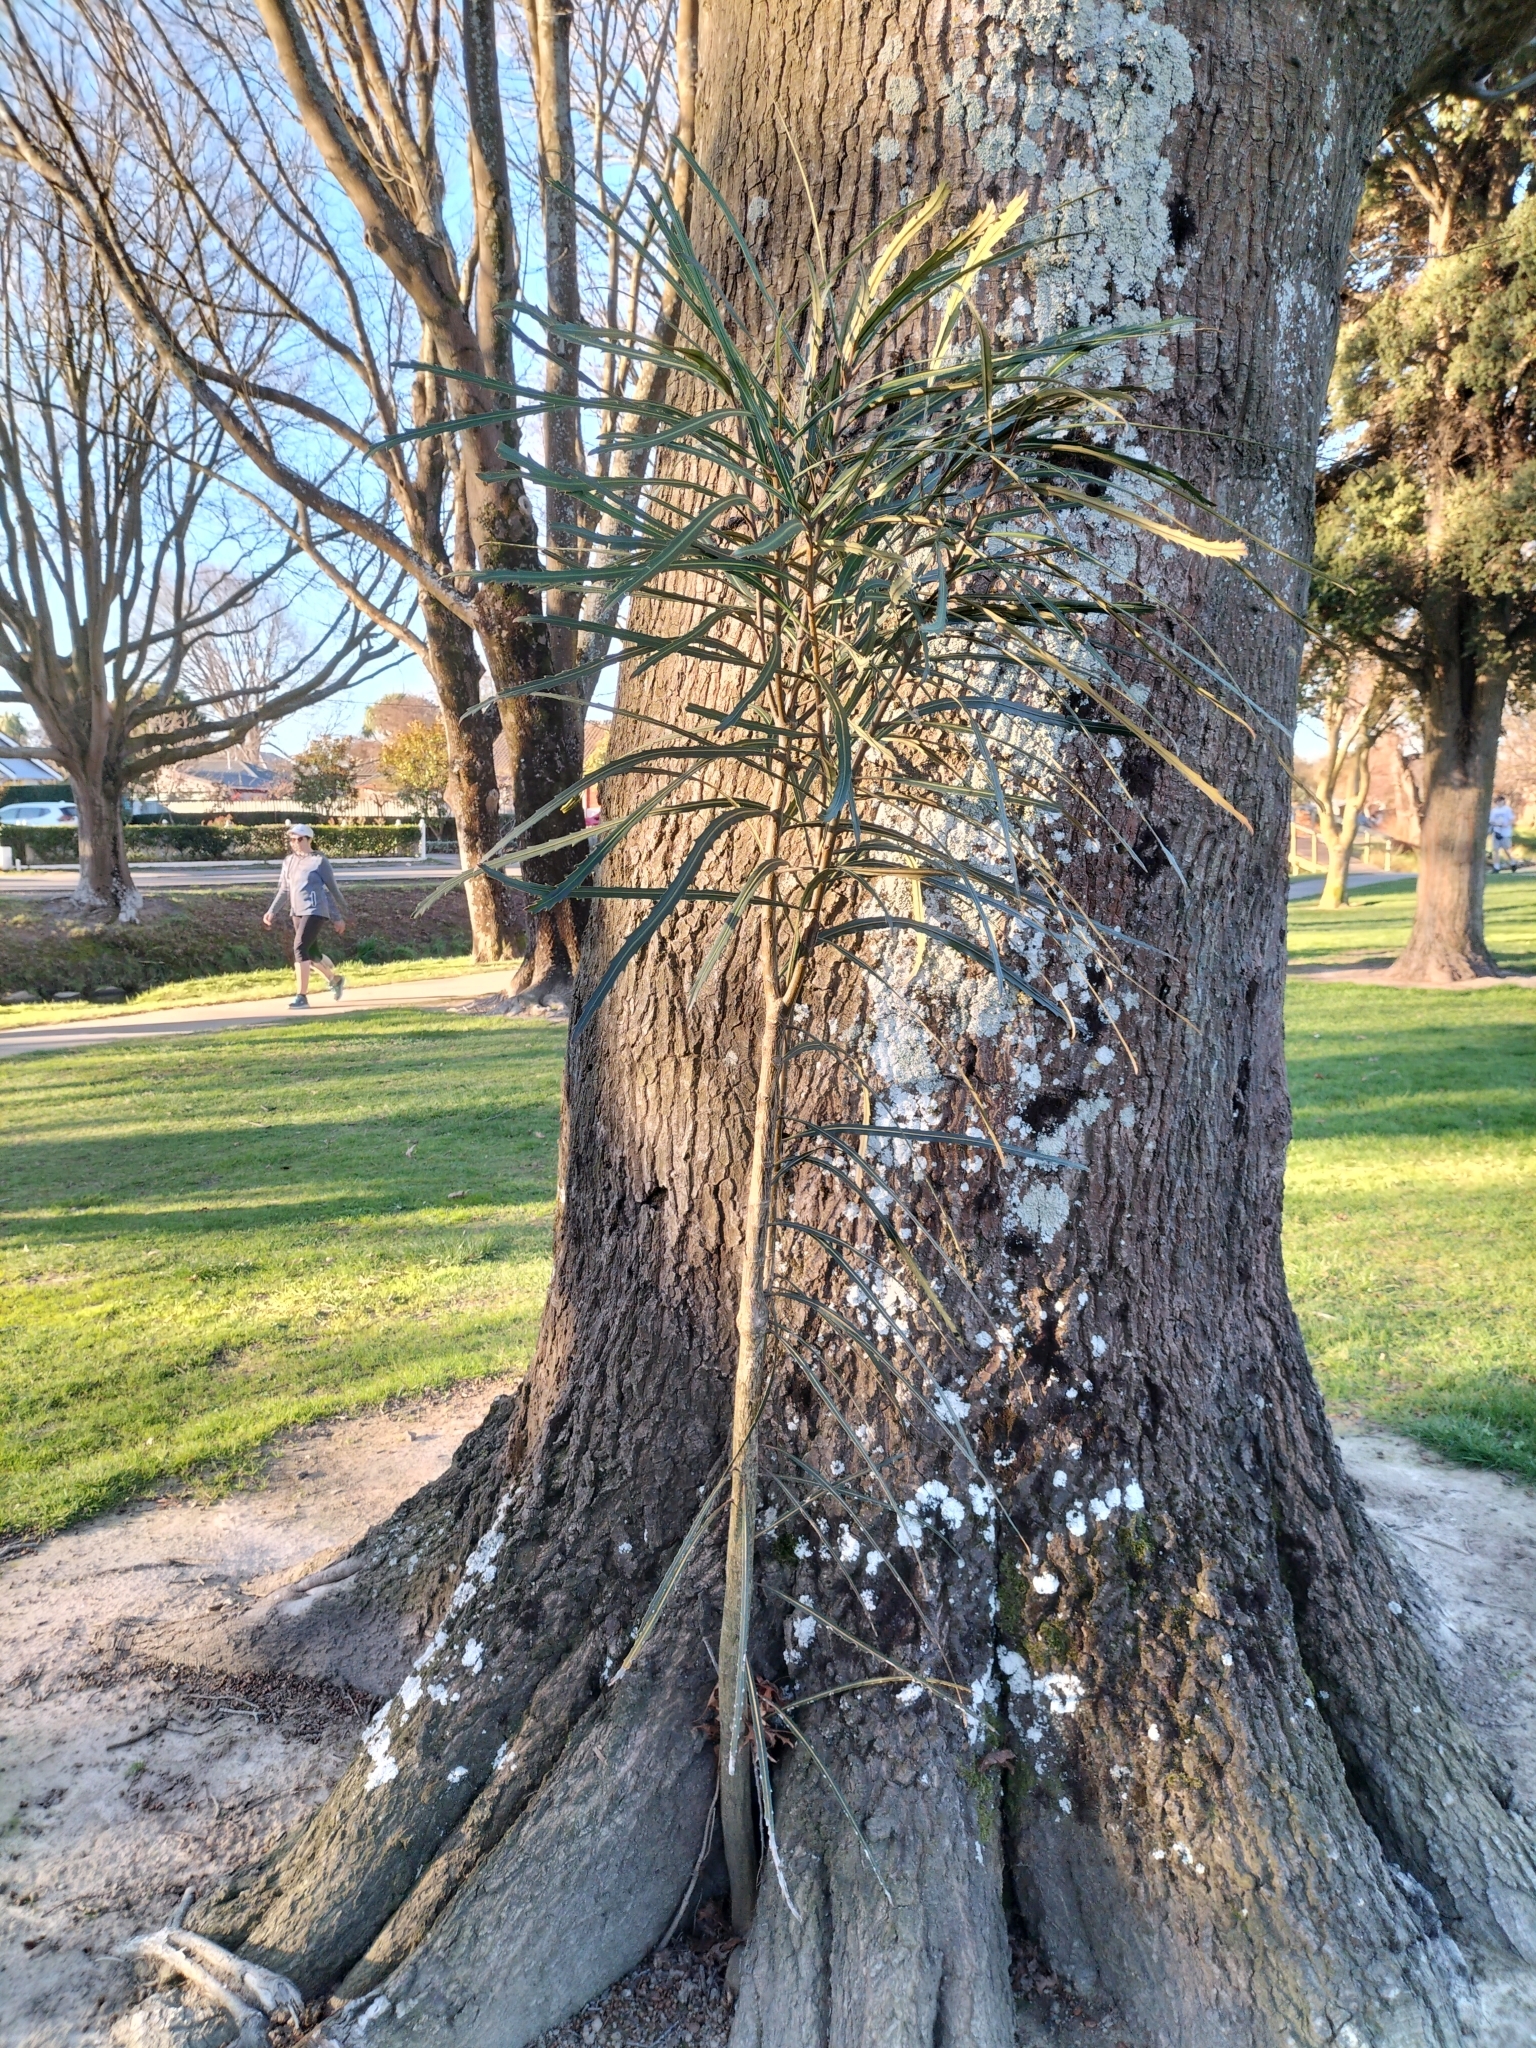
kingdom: Plantae
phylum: Tracheophyta
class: Magnoliopsida
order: Apiales
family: Araliaceae
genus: Pseudopanax
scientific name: Pseudopanax crassifolius
